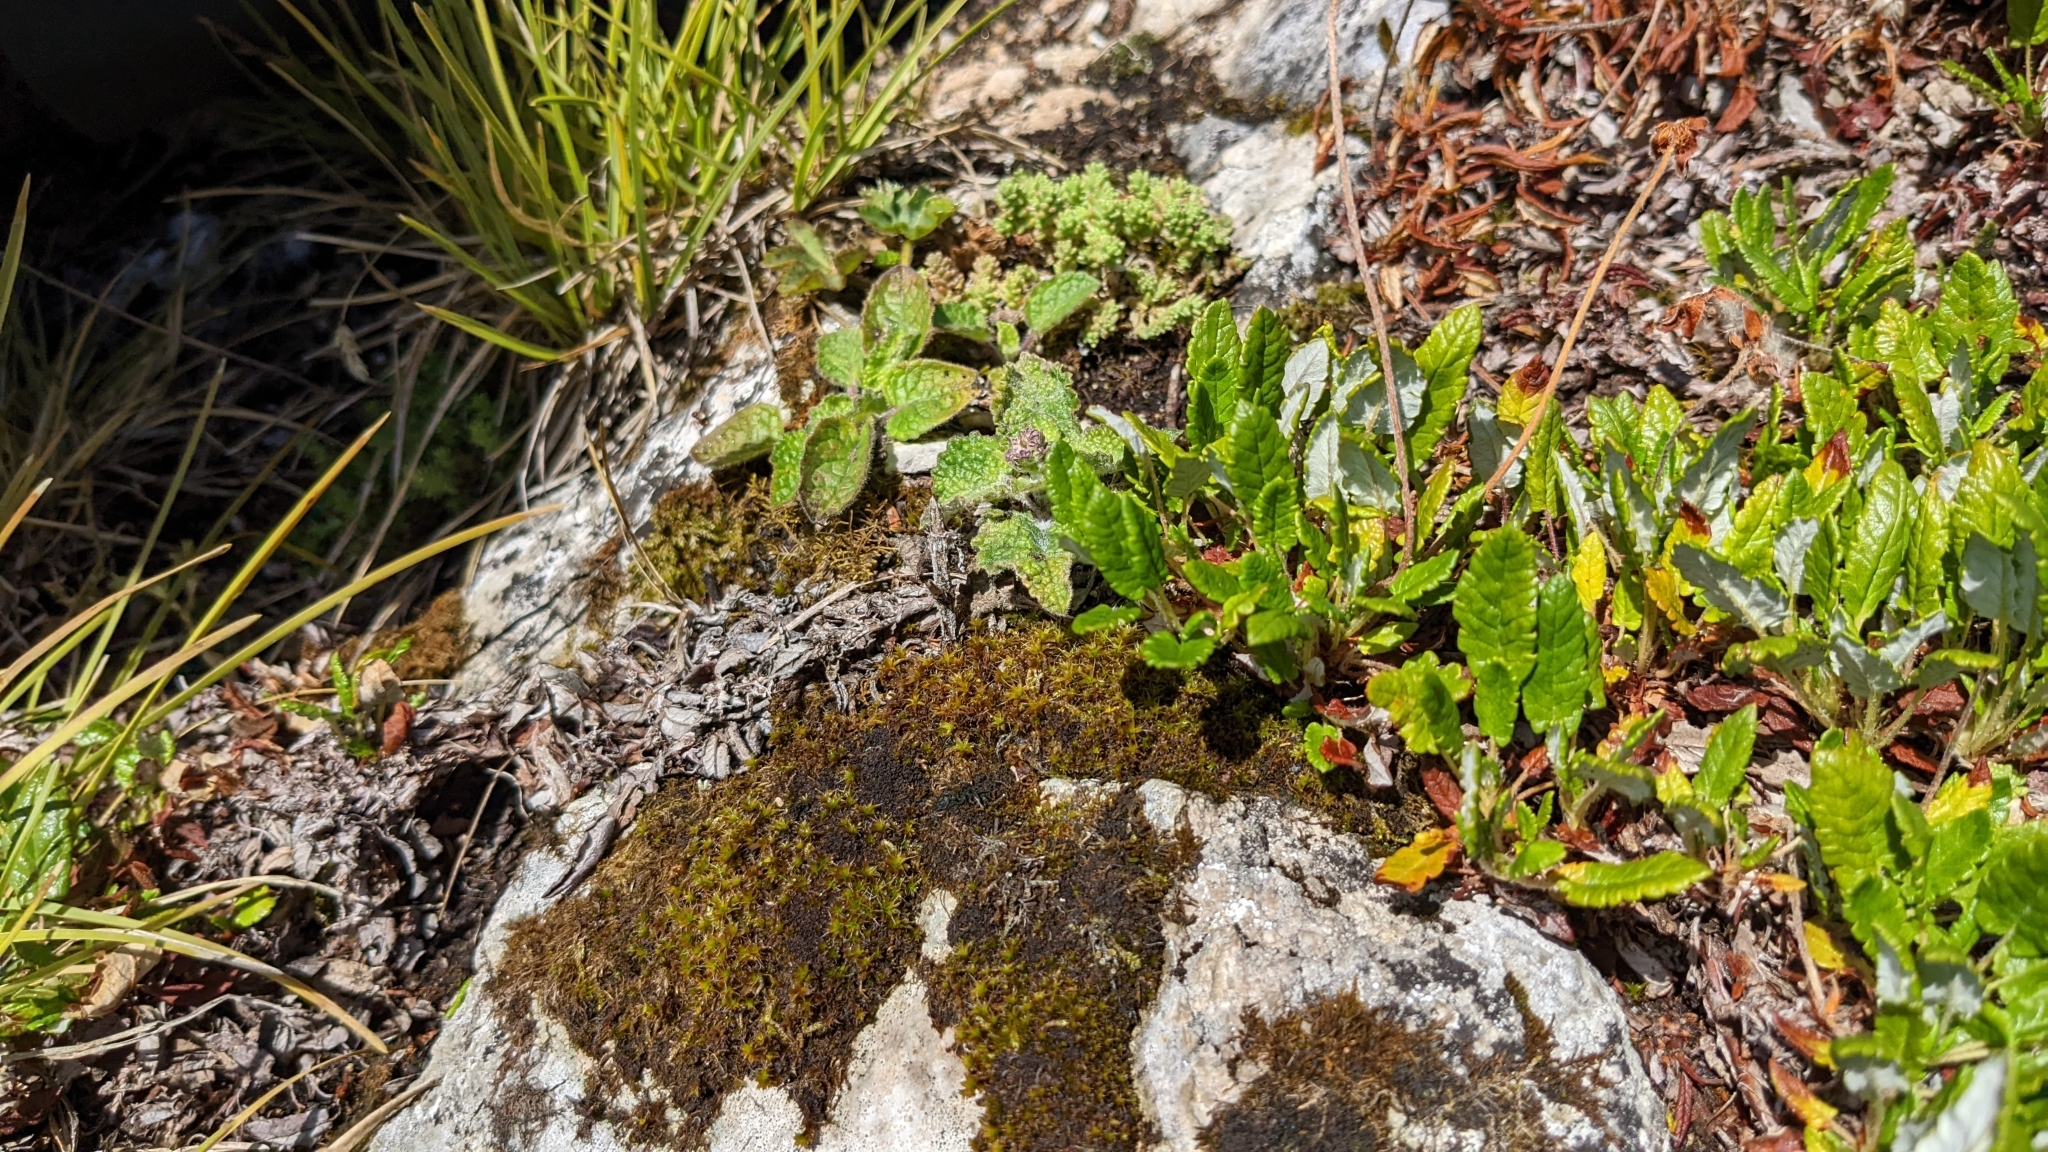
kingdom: Plantae
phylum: Tracheophyta
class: Magnoliopsida
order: Rosales
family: Rosaceae
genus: Dryas
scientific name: Dryas octopetala
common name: Eight-petal mountain-avens
